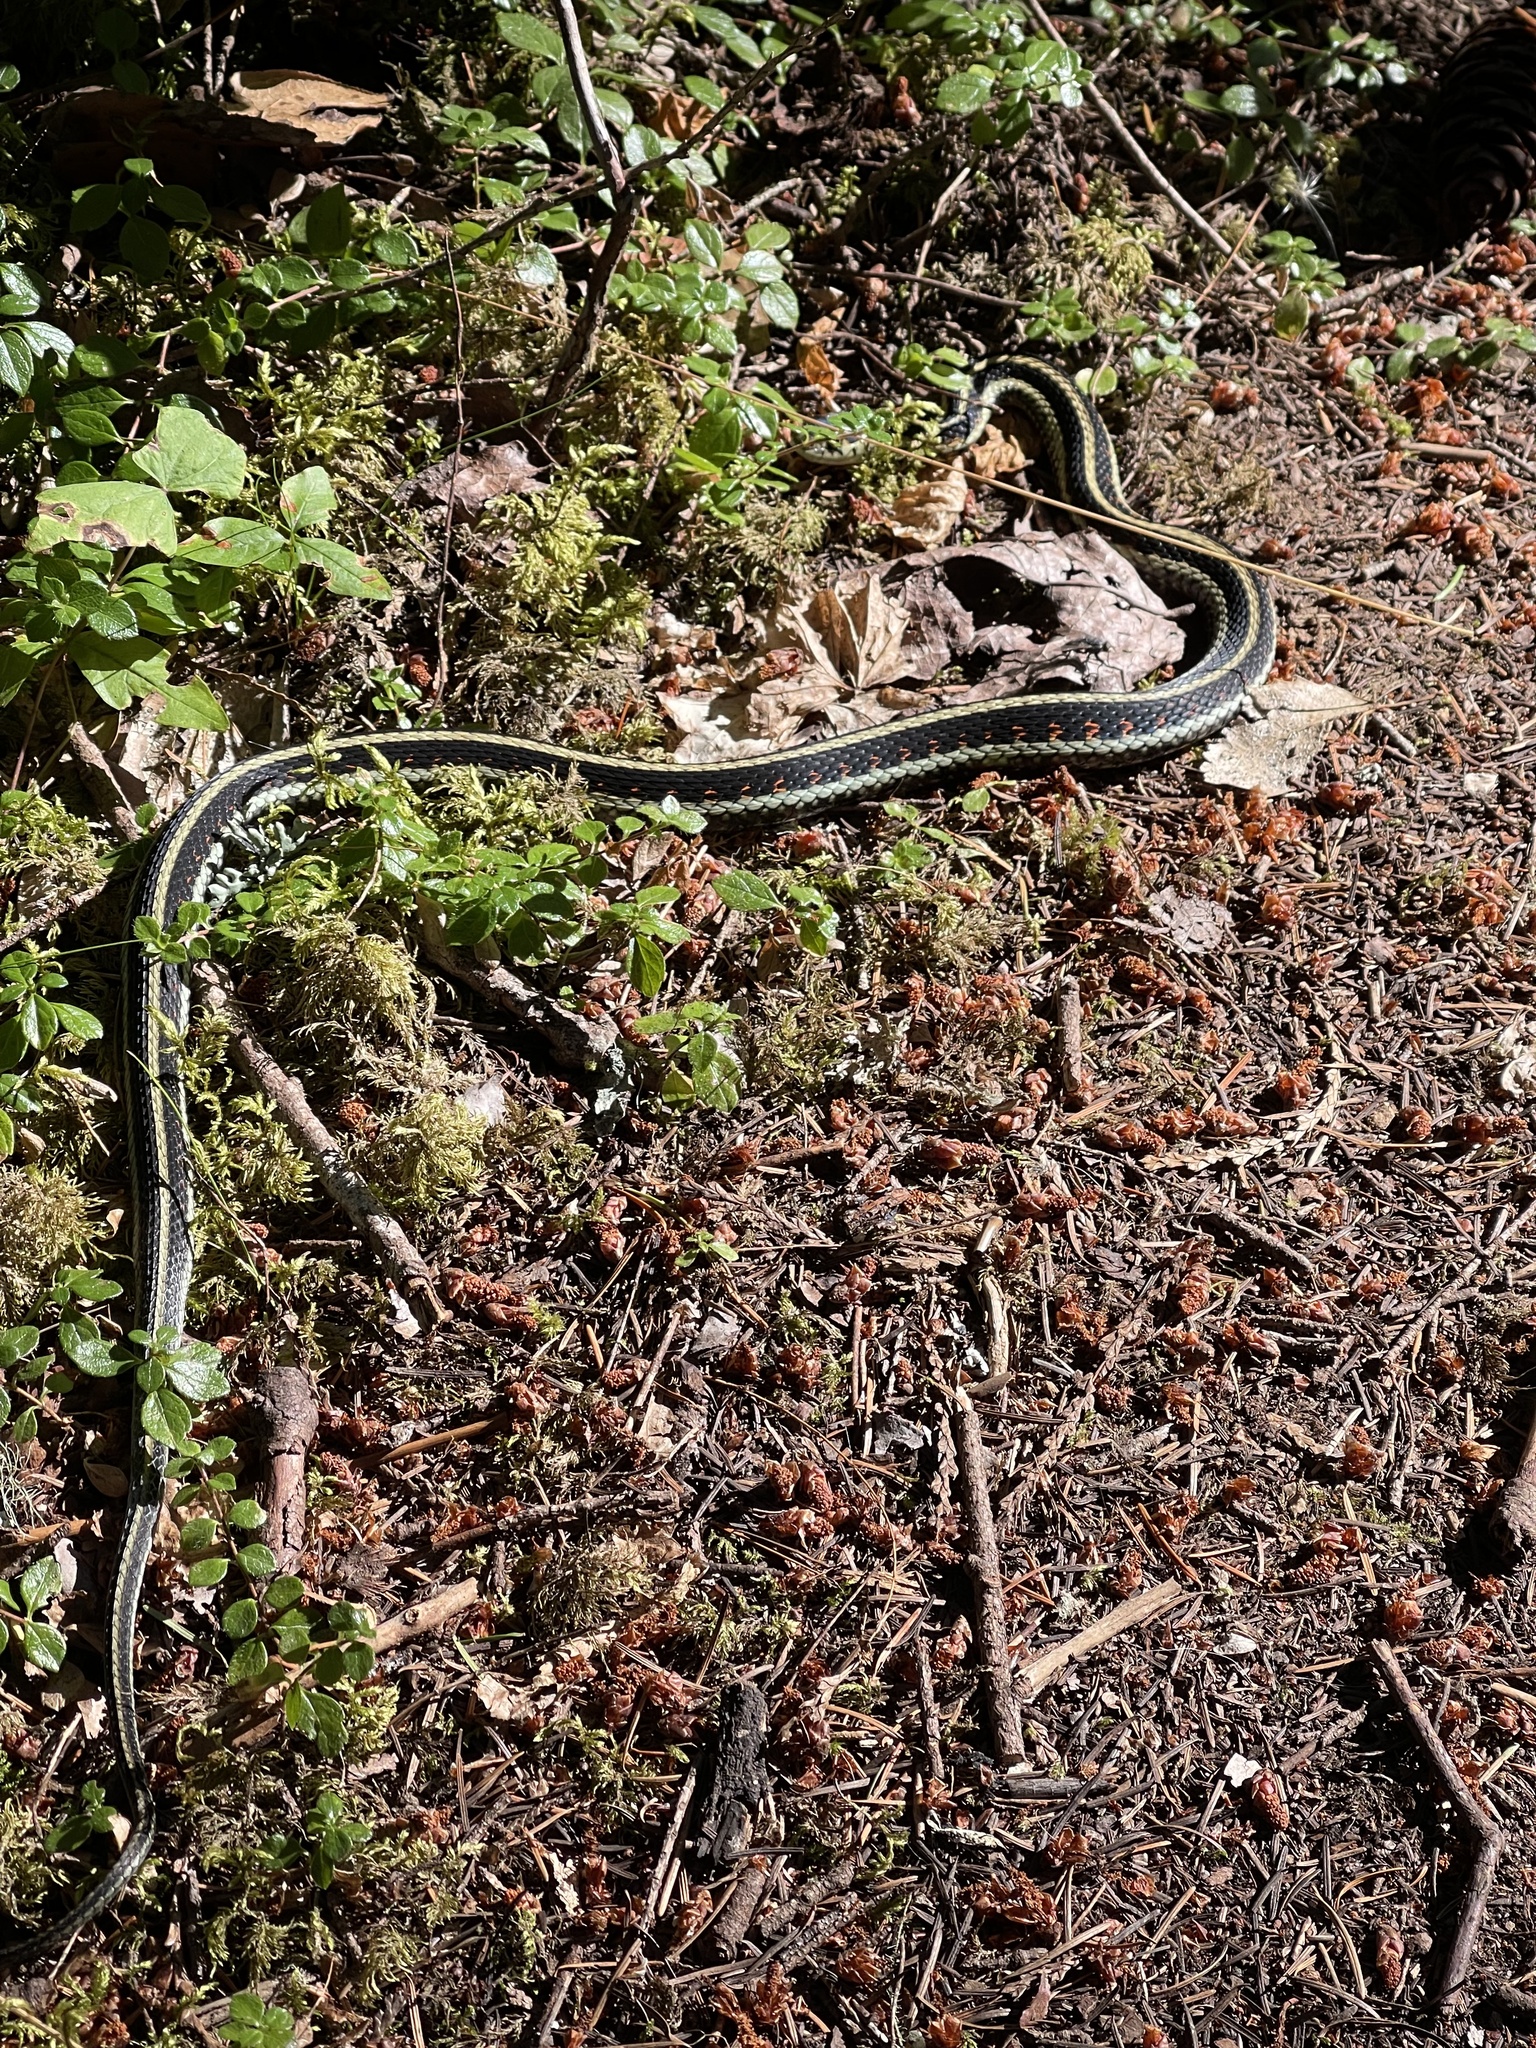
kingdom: Animalia
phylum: Chordata
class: Squamata
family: Colubridae
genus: Thamnophis
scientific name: Thamnophis sirtalis
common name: Common garter snake
